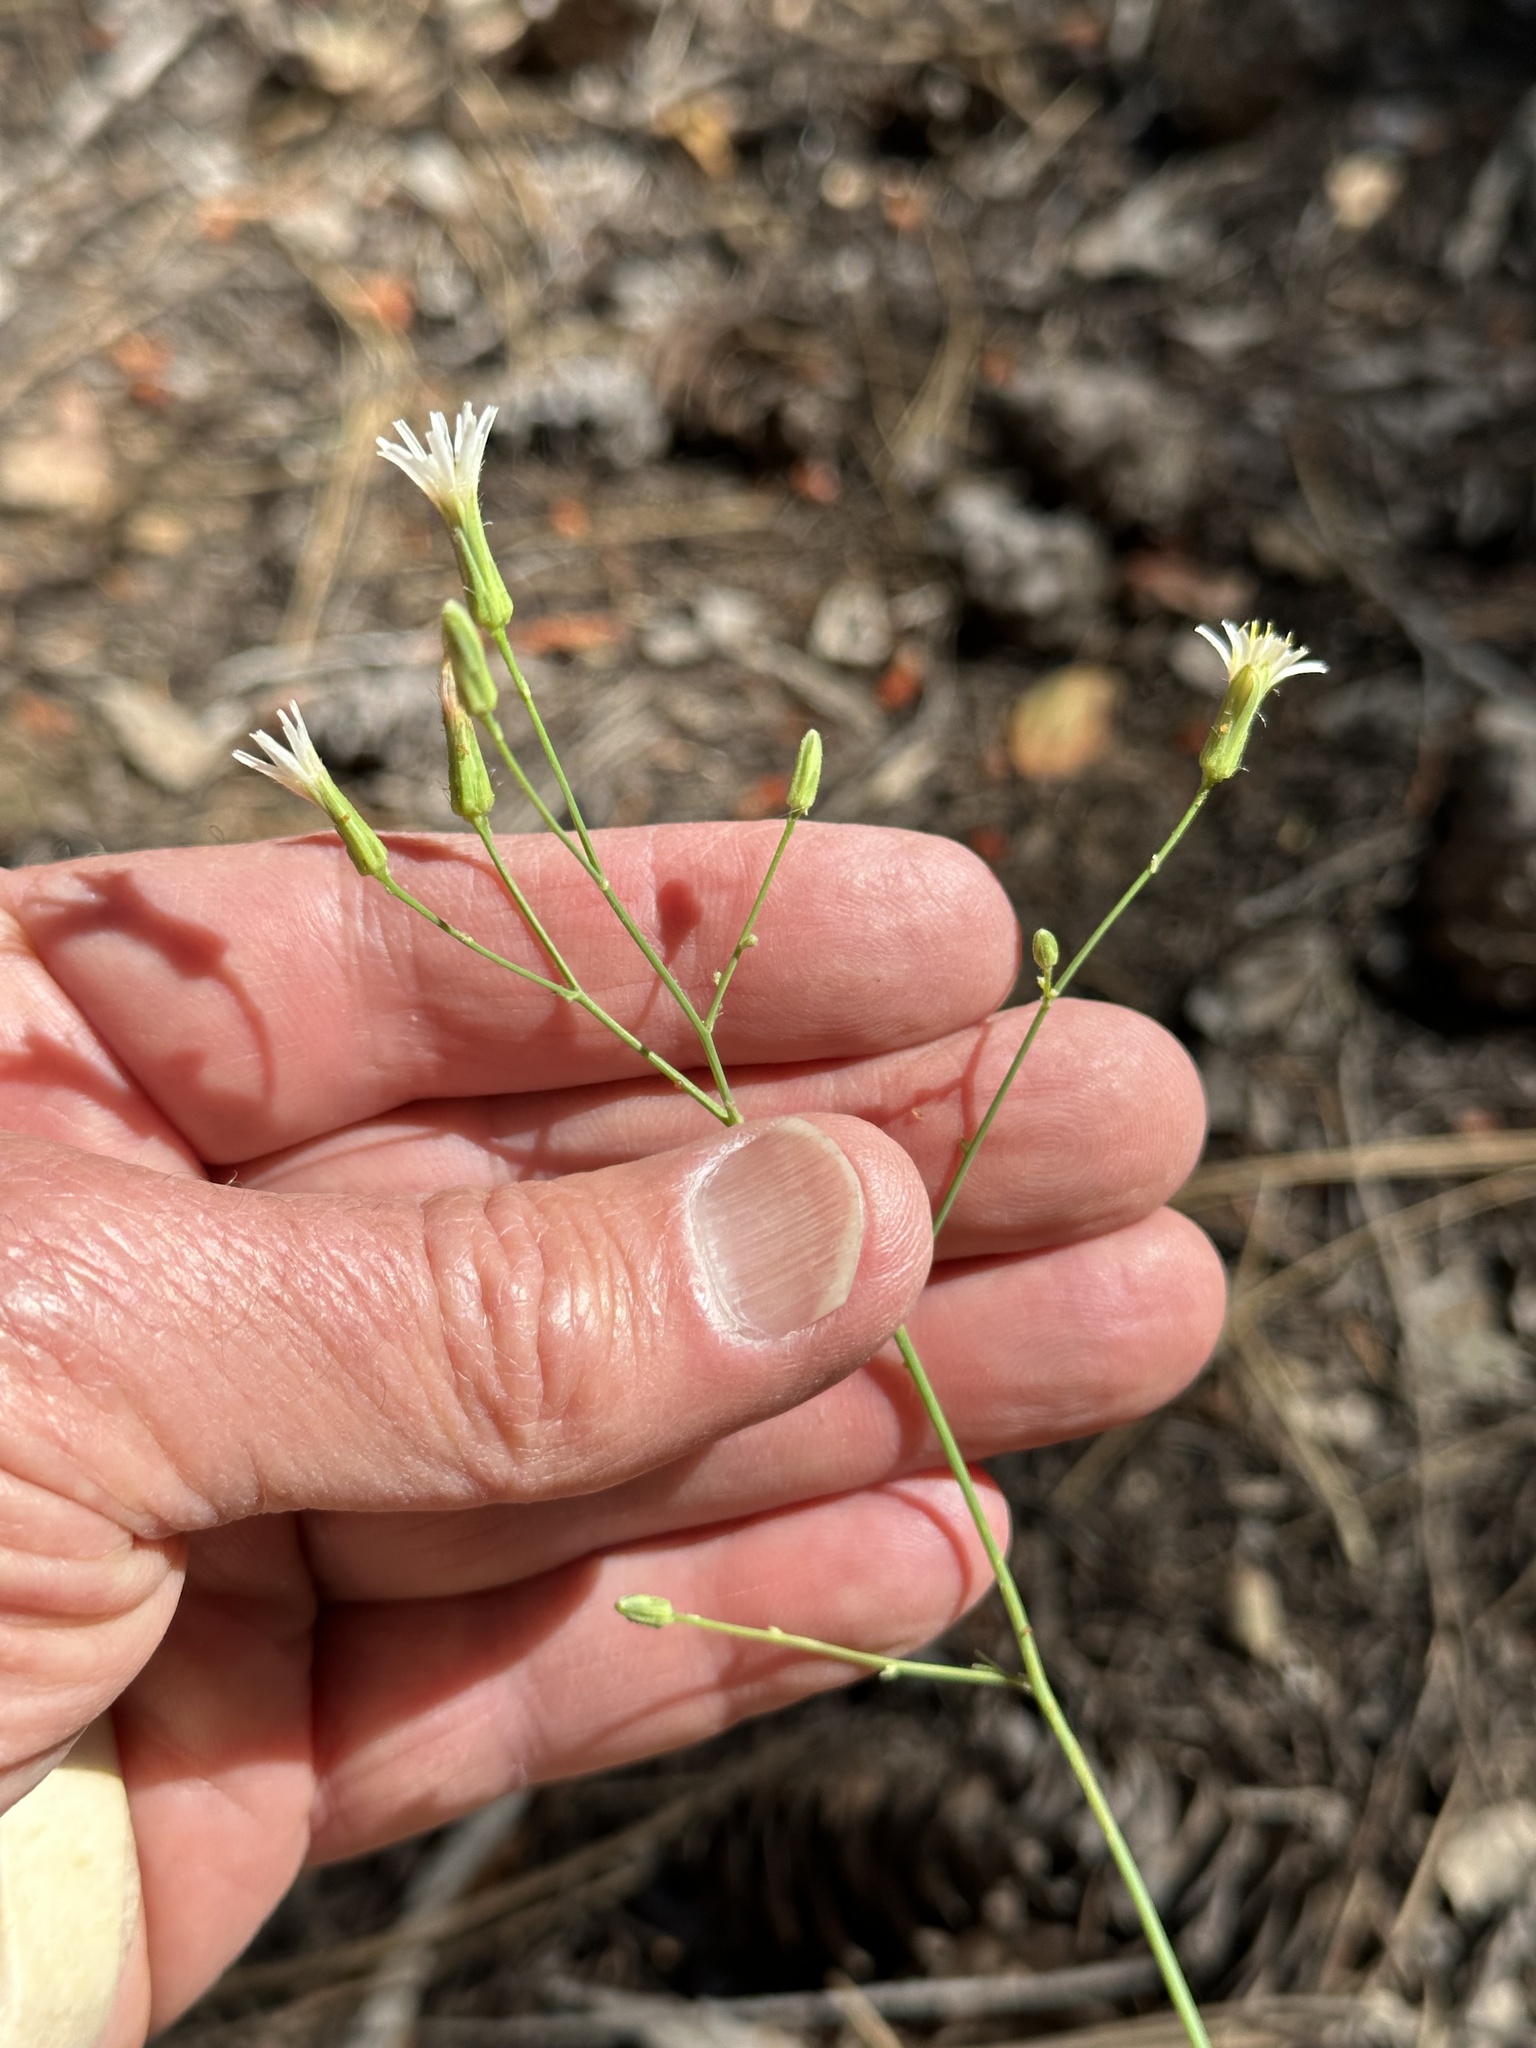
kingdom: Plantae
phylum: Tracheophyta
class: Magnoliopsida
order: Asterales
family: Asteraceae
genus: Hieracium
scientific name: Hieracium albiflorum
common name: White hawkweed
